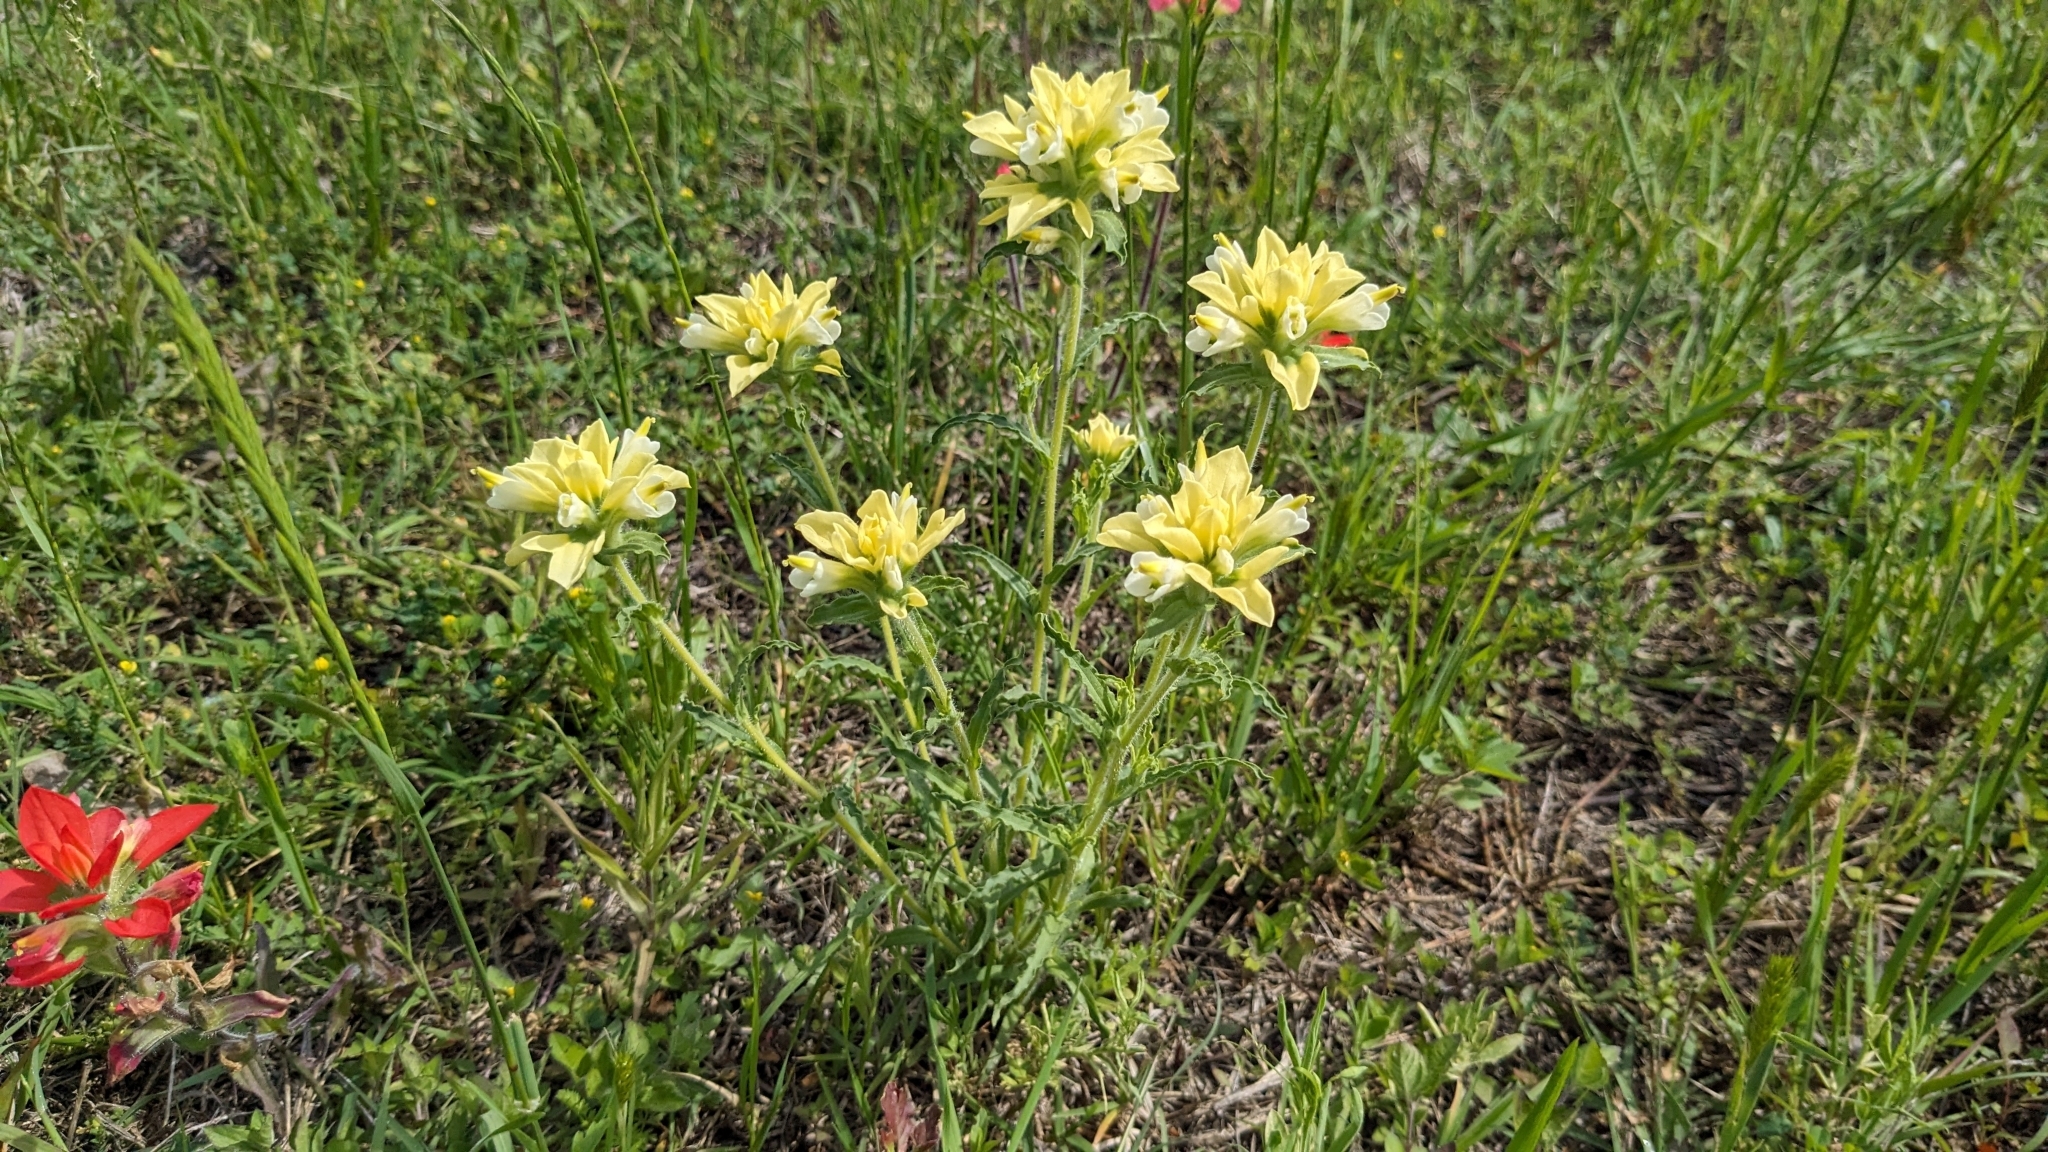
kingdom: Plantae
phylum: Tracheophyta
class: Magnoliopsida
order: Lamiales
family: Orobanchaceae
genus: Castilleja
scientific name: Castilleja indivisa
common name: Texas paintbrush
